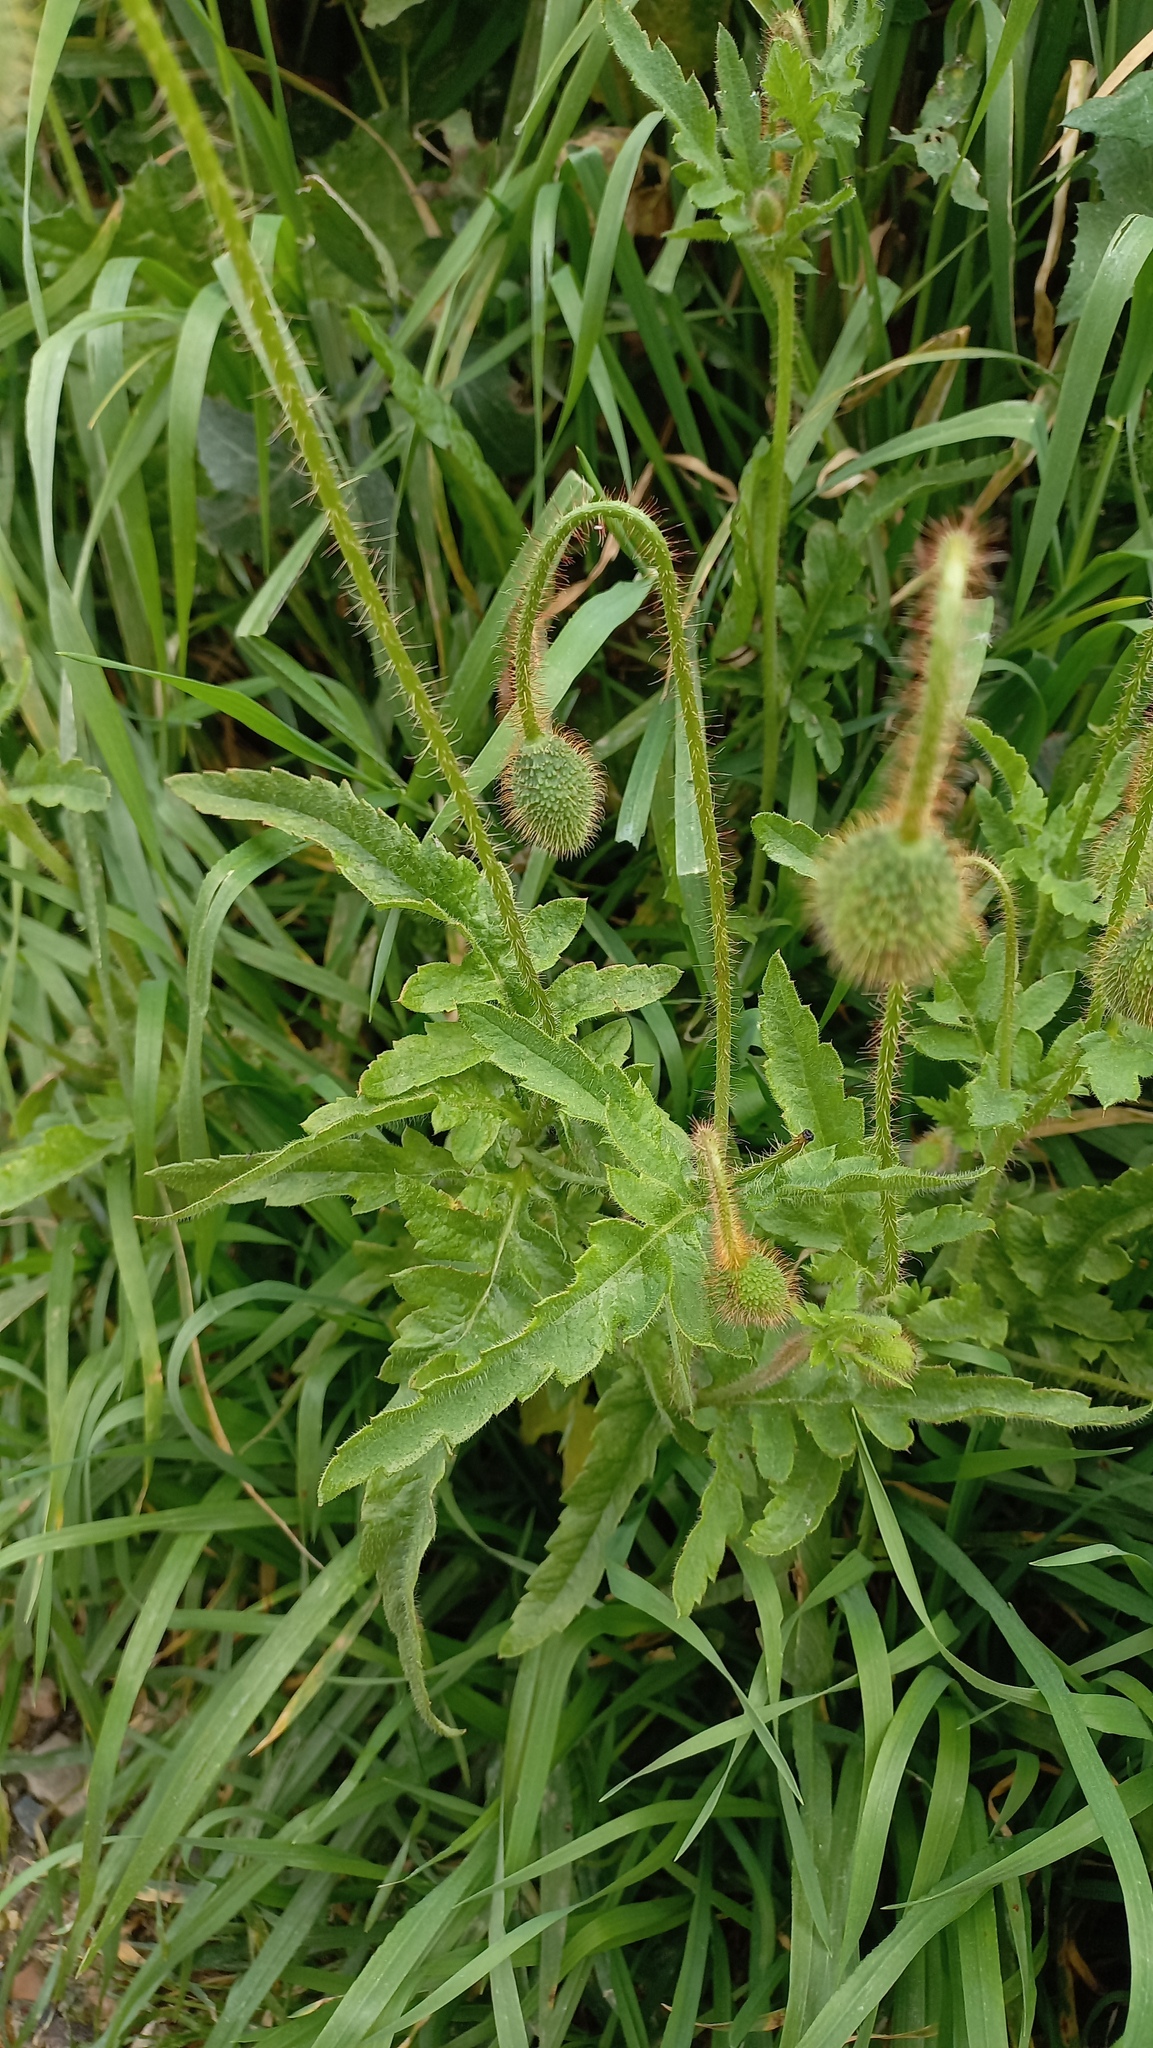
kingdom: Plantae
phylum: Tracheophyta
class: Magnoliopsida
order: Ranunculales
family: Papaveraceae
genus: Papaver
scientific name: Papaver rhoeas
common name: Corn poppy
